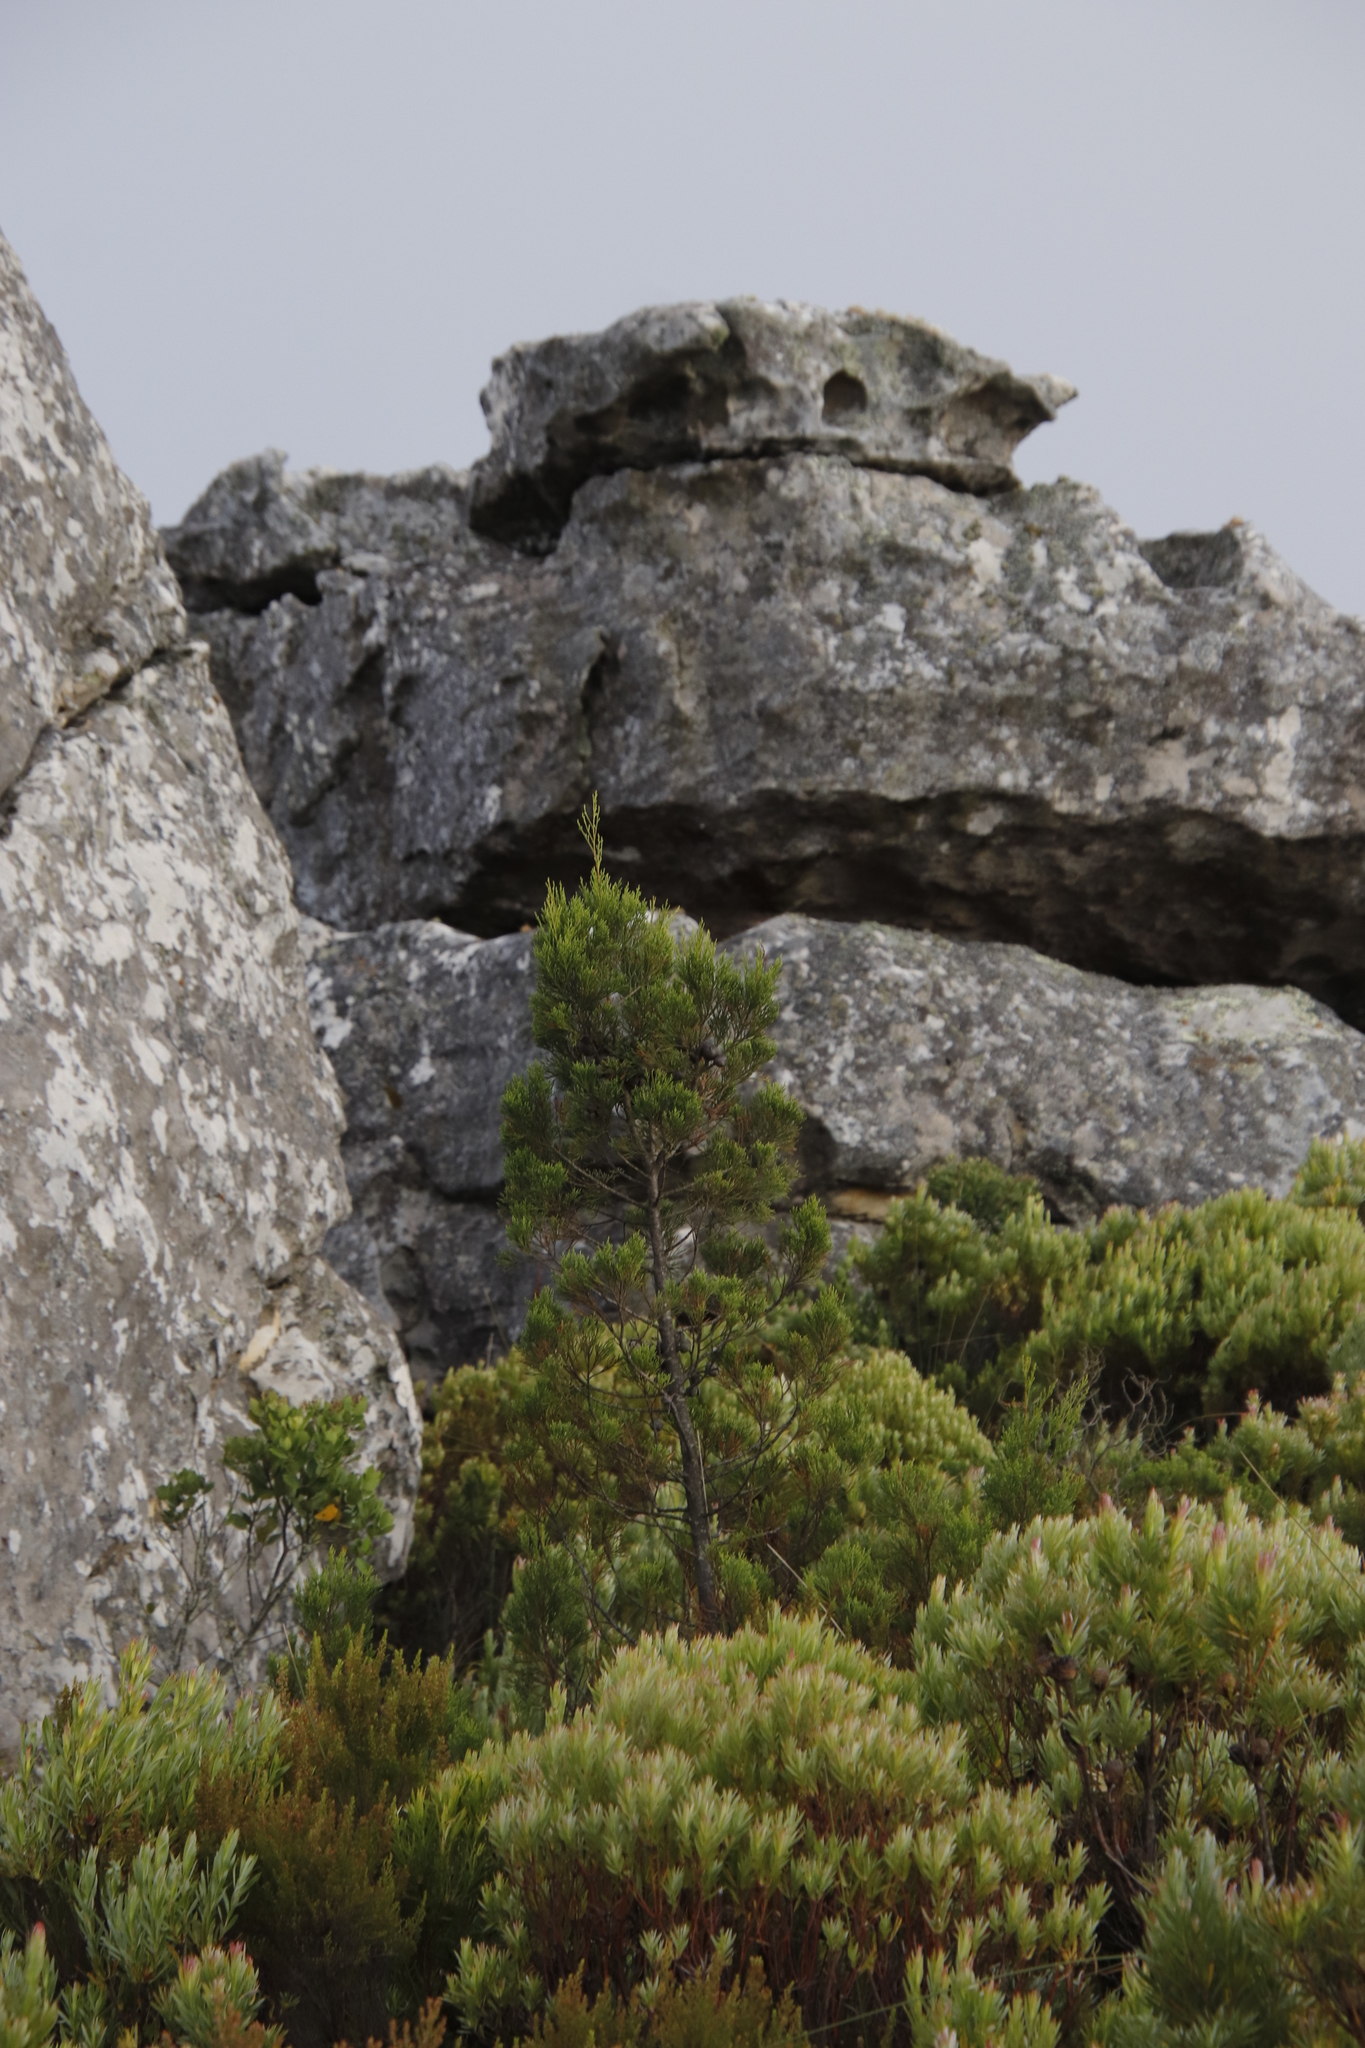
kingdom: Plantae
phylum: Tracheophyta
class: Pinopsida
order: Pinales
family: Cupressaceae
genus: Widdringtonia
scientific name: Widdringtonia nodiflora
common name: Cape cypress
